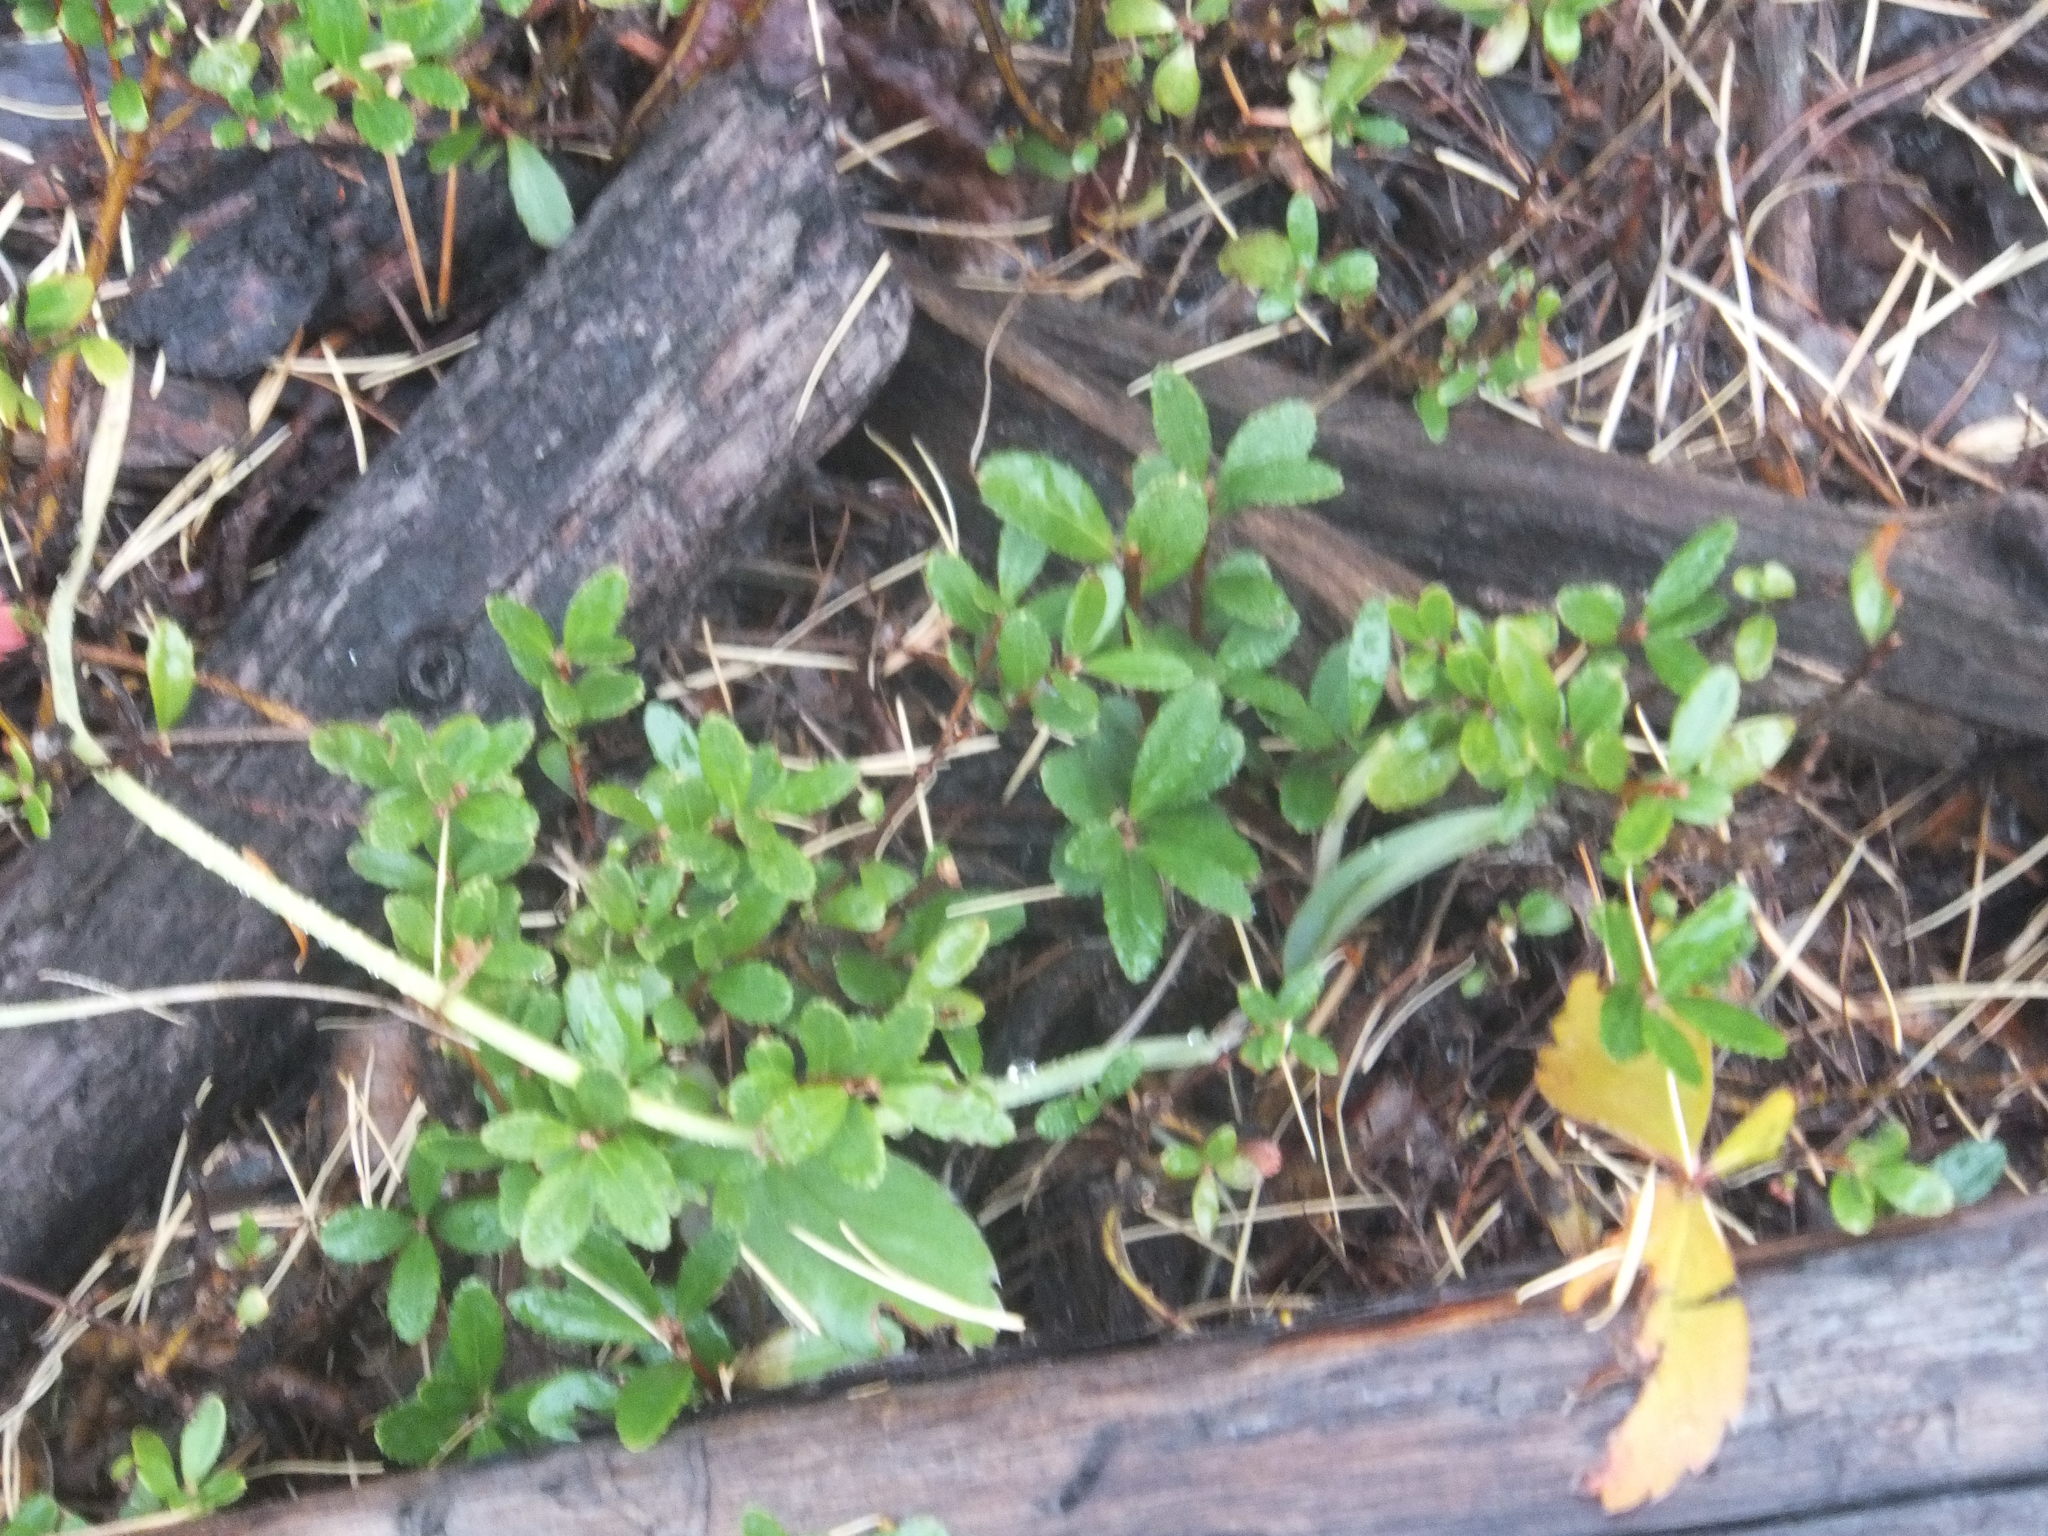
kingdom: Plantae
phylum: Tracheophyta
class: Magnoliopsida
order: Celastrales
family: Celastraceae
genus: Paxistima
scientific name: Paxistima myrsinites
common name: Mountain-lover
